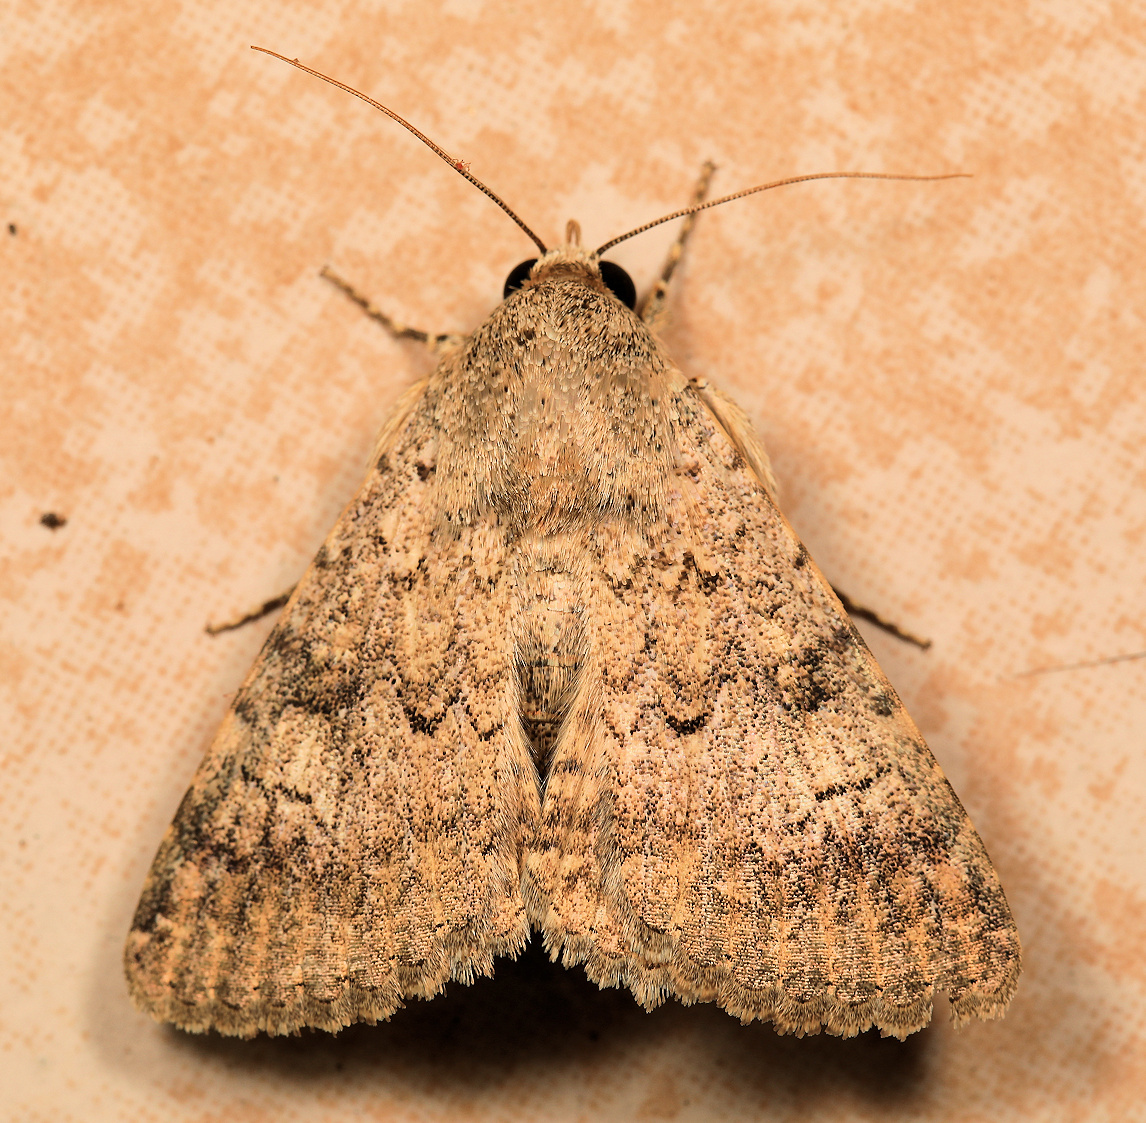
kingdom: Animalia
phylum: Arthropoda
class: Insecta
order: Lepidoptera
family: Erebidae
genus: Pandesma
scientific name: Pandesma robusta
